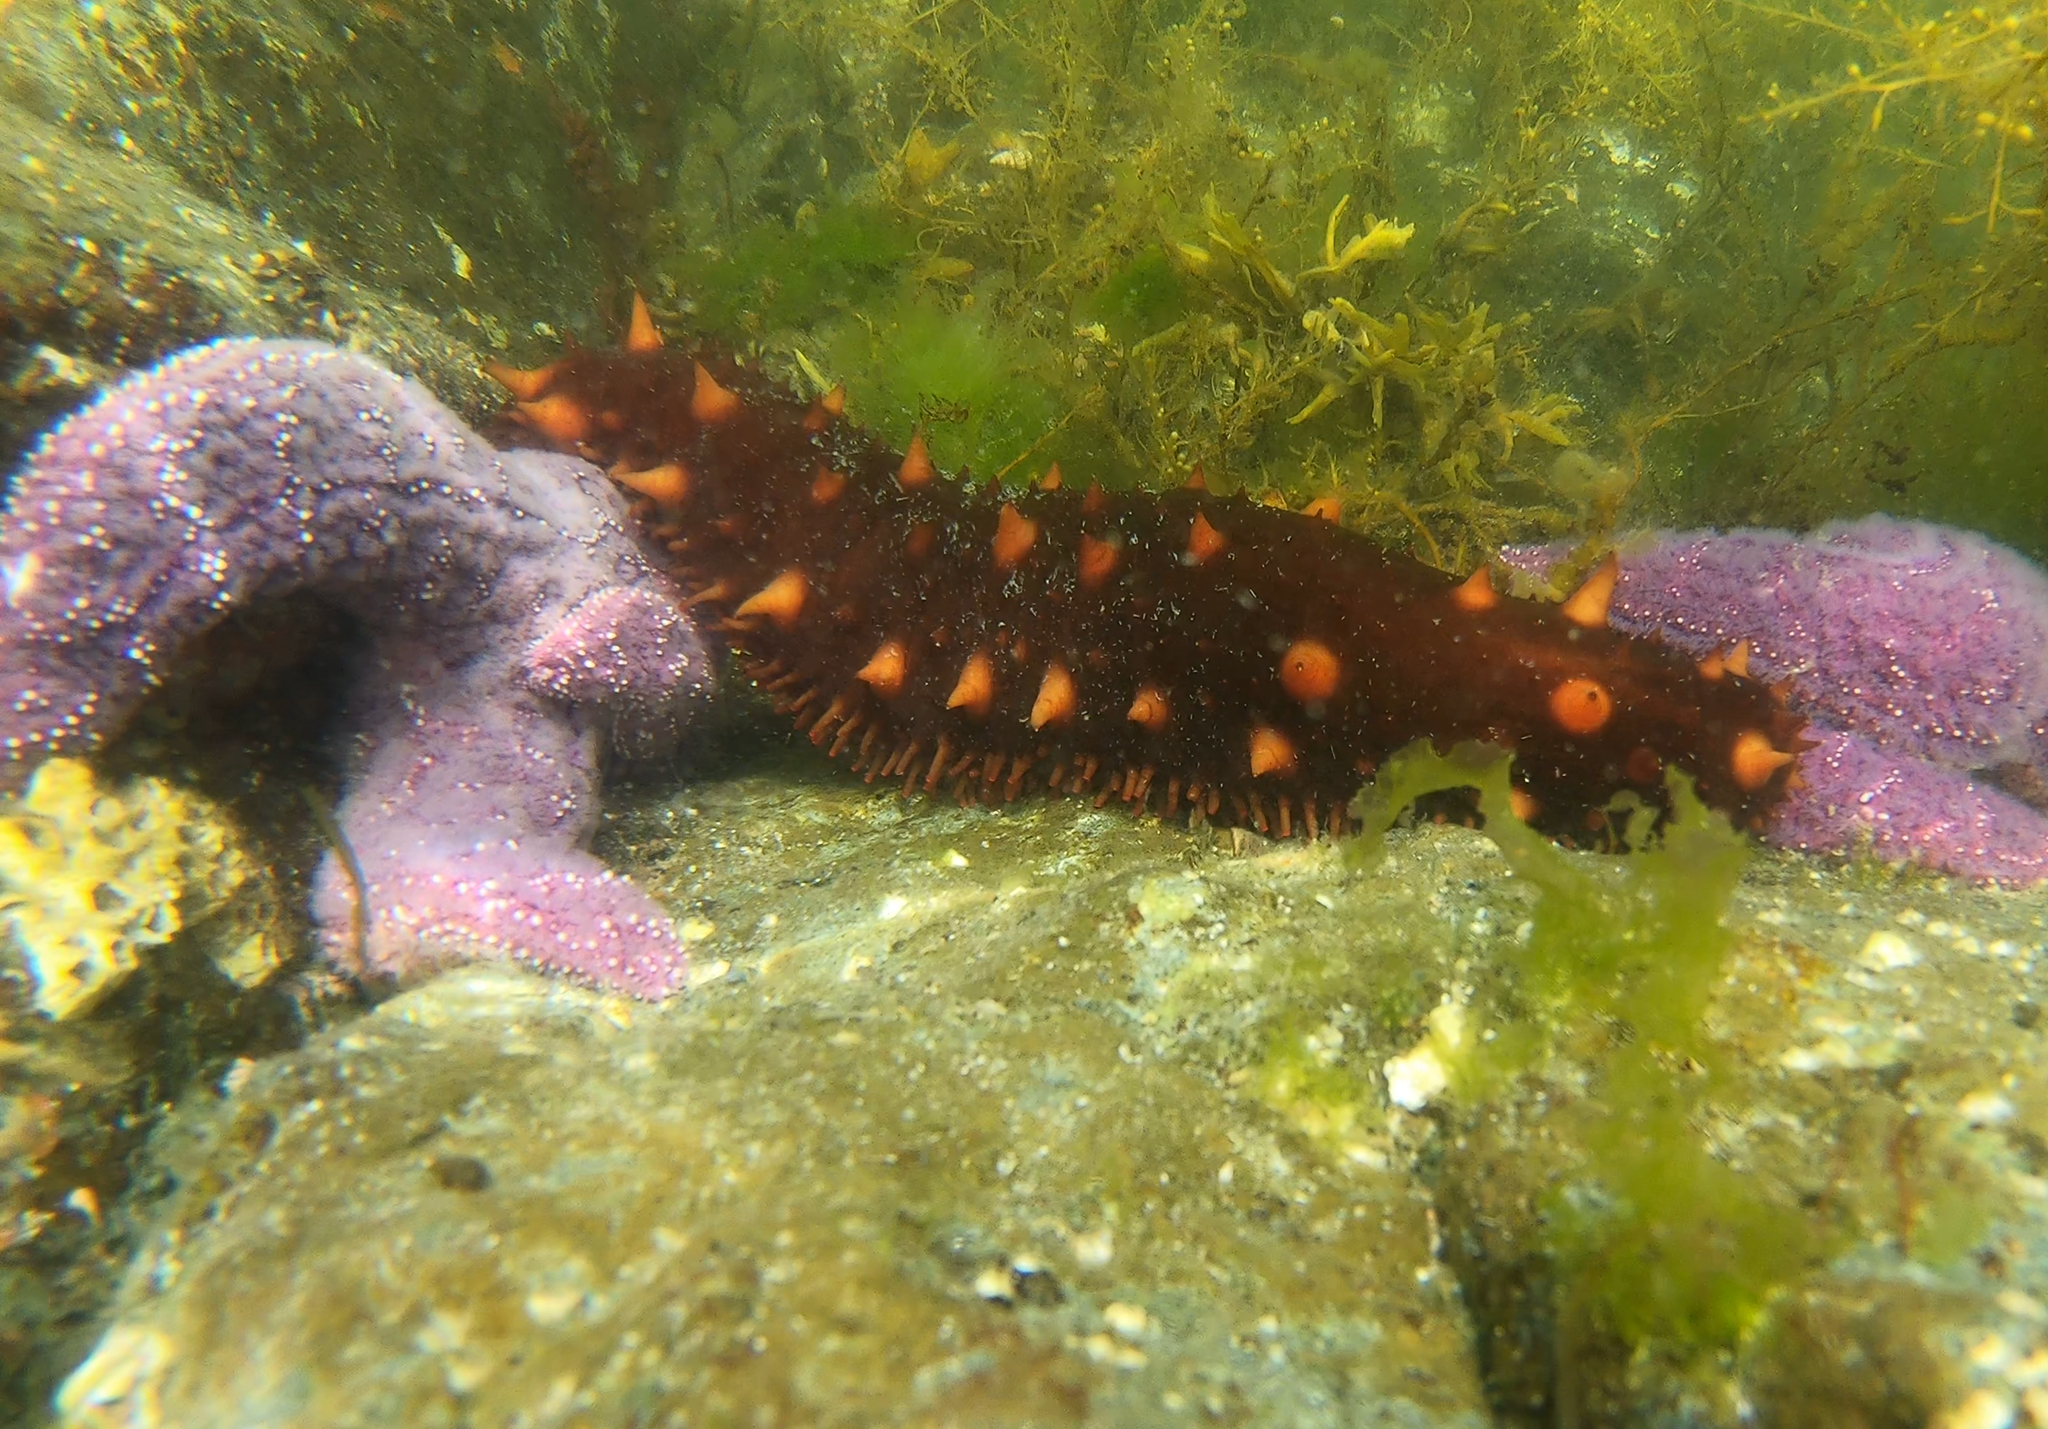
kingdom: Animalia
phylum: Echinodermata
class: Holothuroidea
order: Synallactida
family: Stichopodidae
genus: Apostichopus
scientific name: Apostichopus californicus
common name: California sea cucumber
